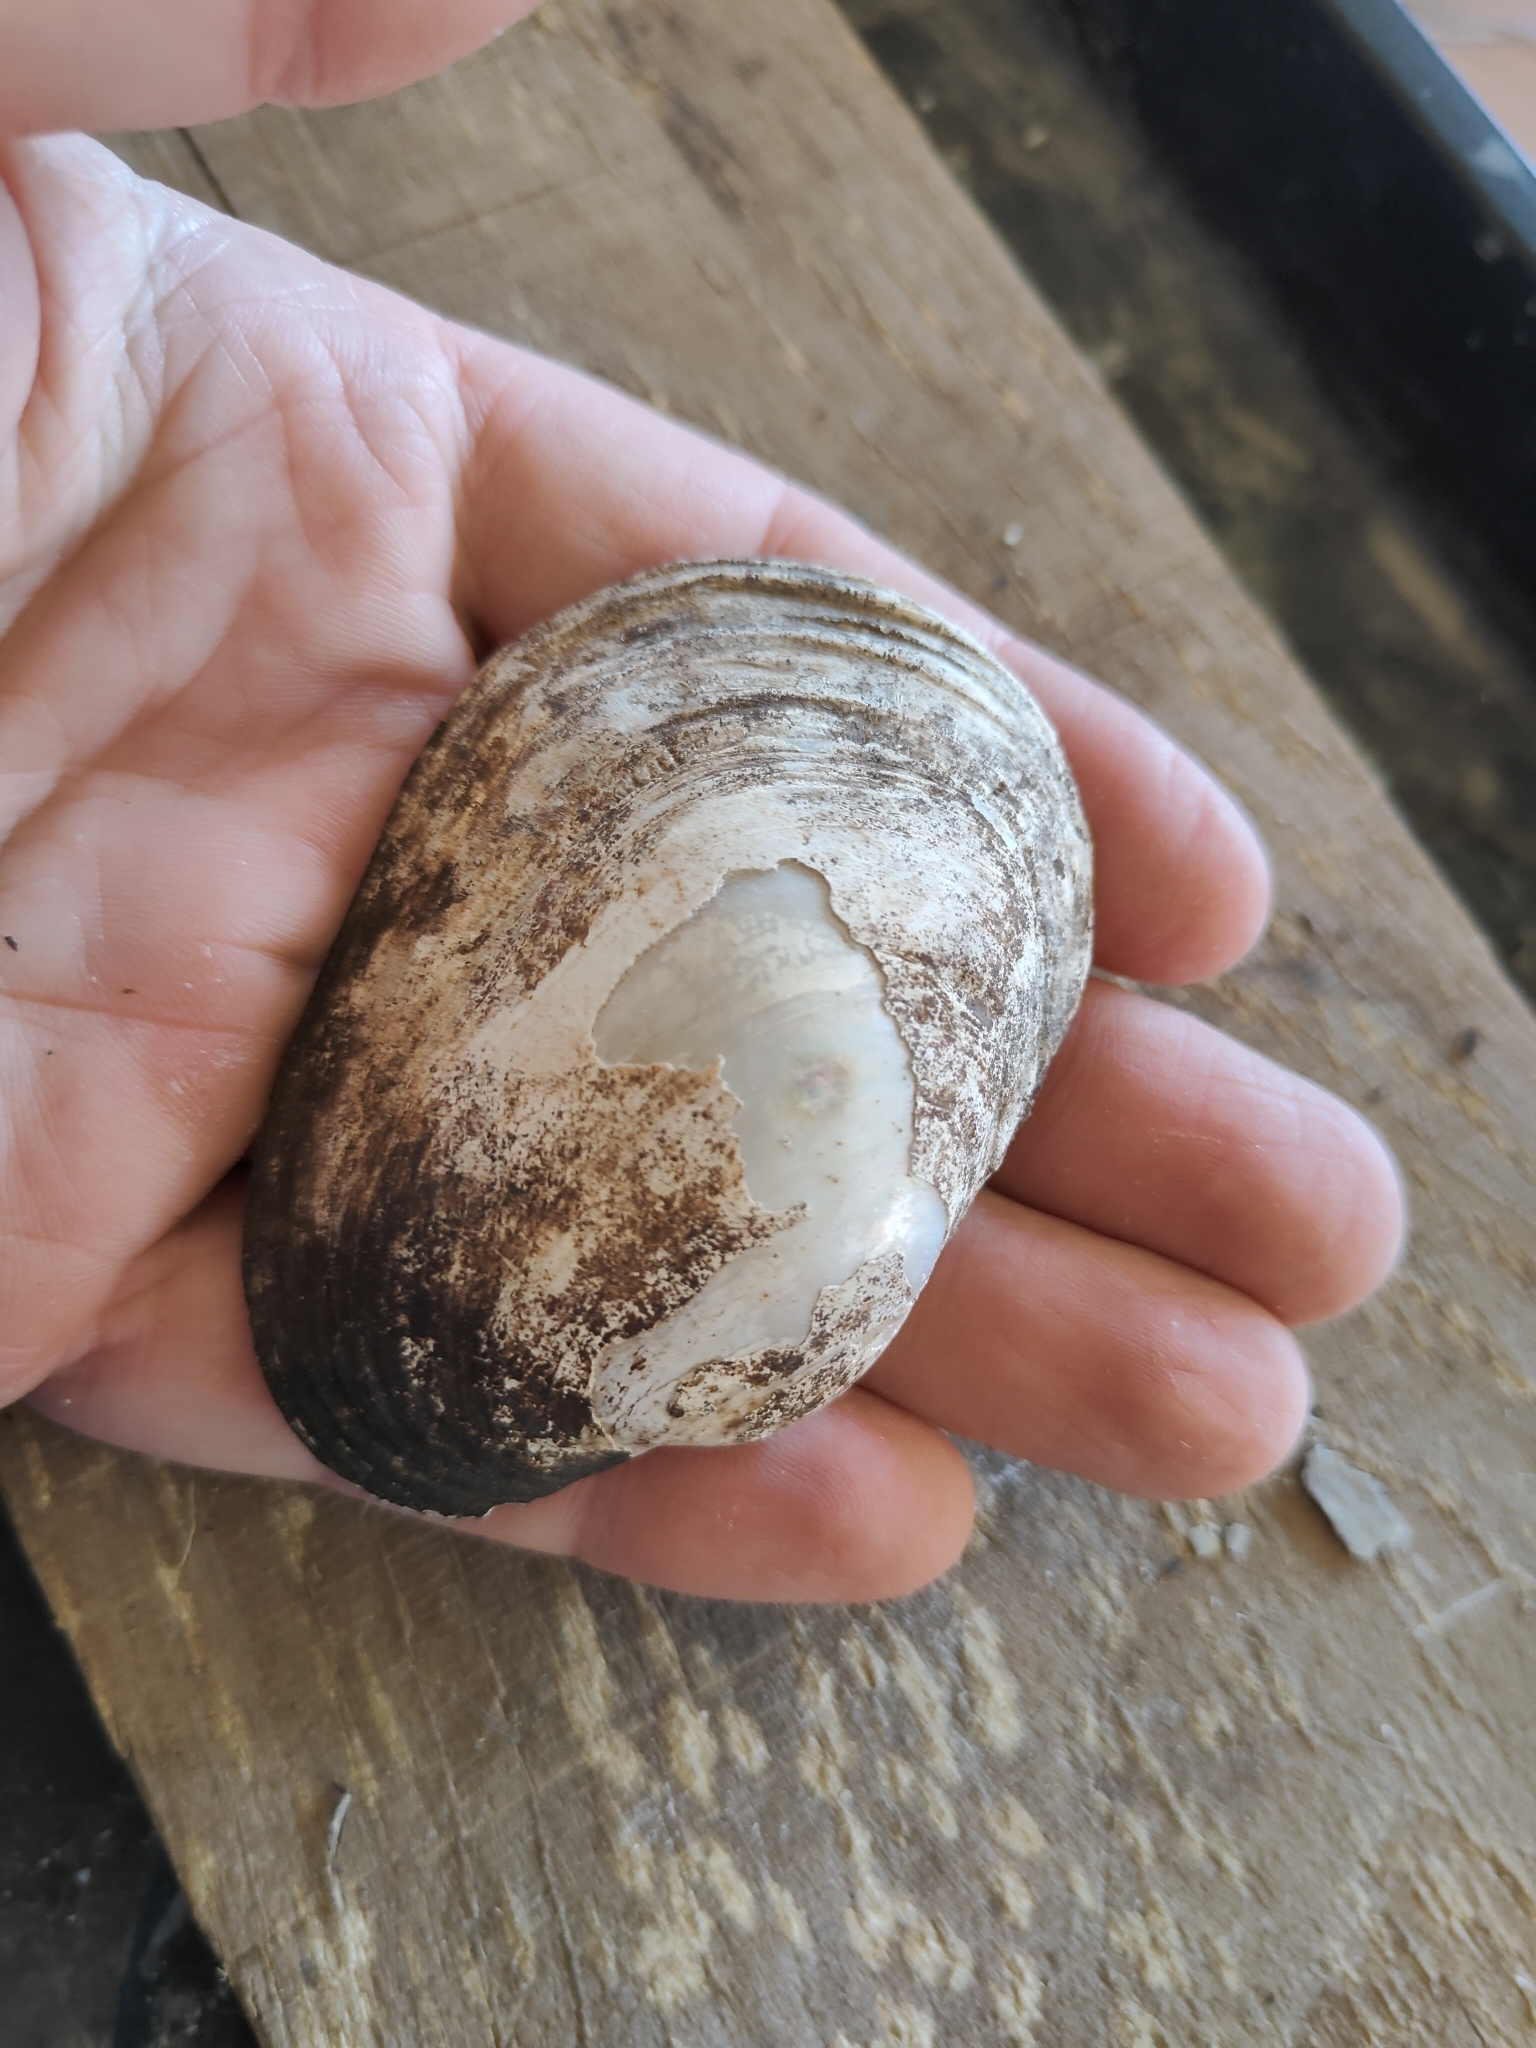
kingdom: Animalia
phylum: Mollusca
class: Bivalvia
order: Unionida
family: Unionidae
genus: Lampsilis
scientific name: Lampsilis cardium
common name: Plain pocketbook
